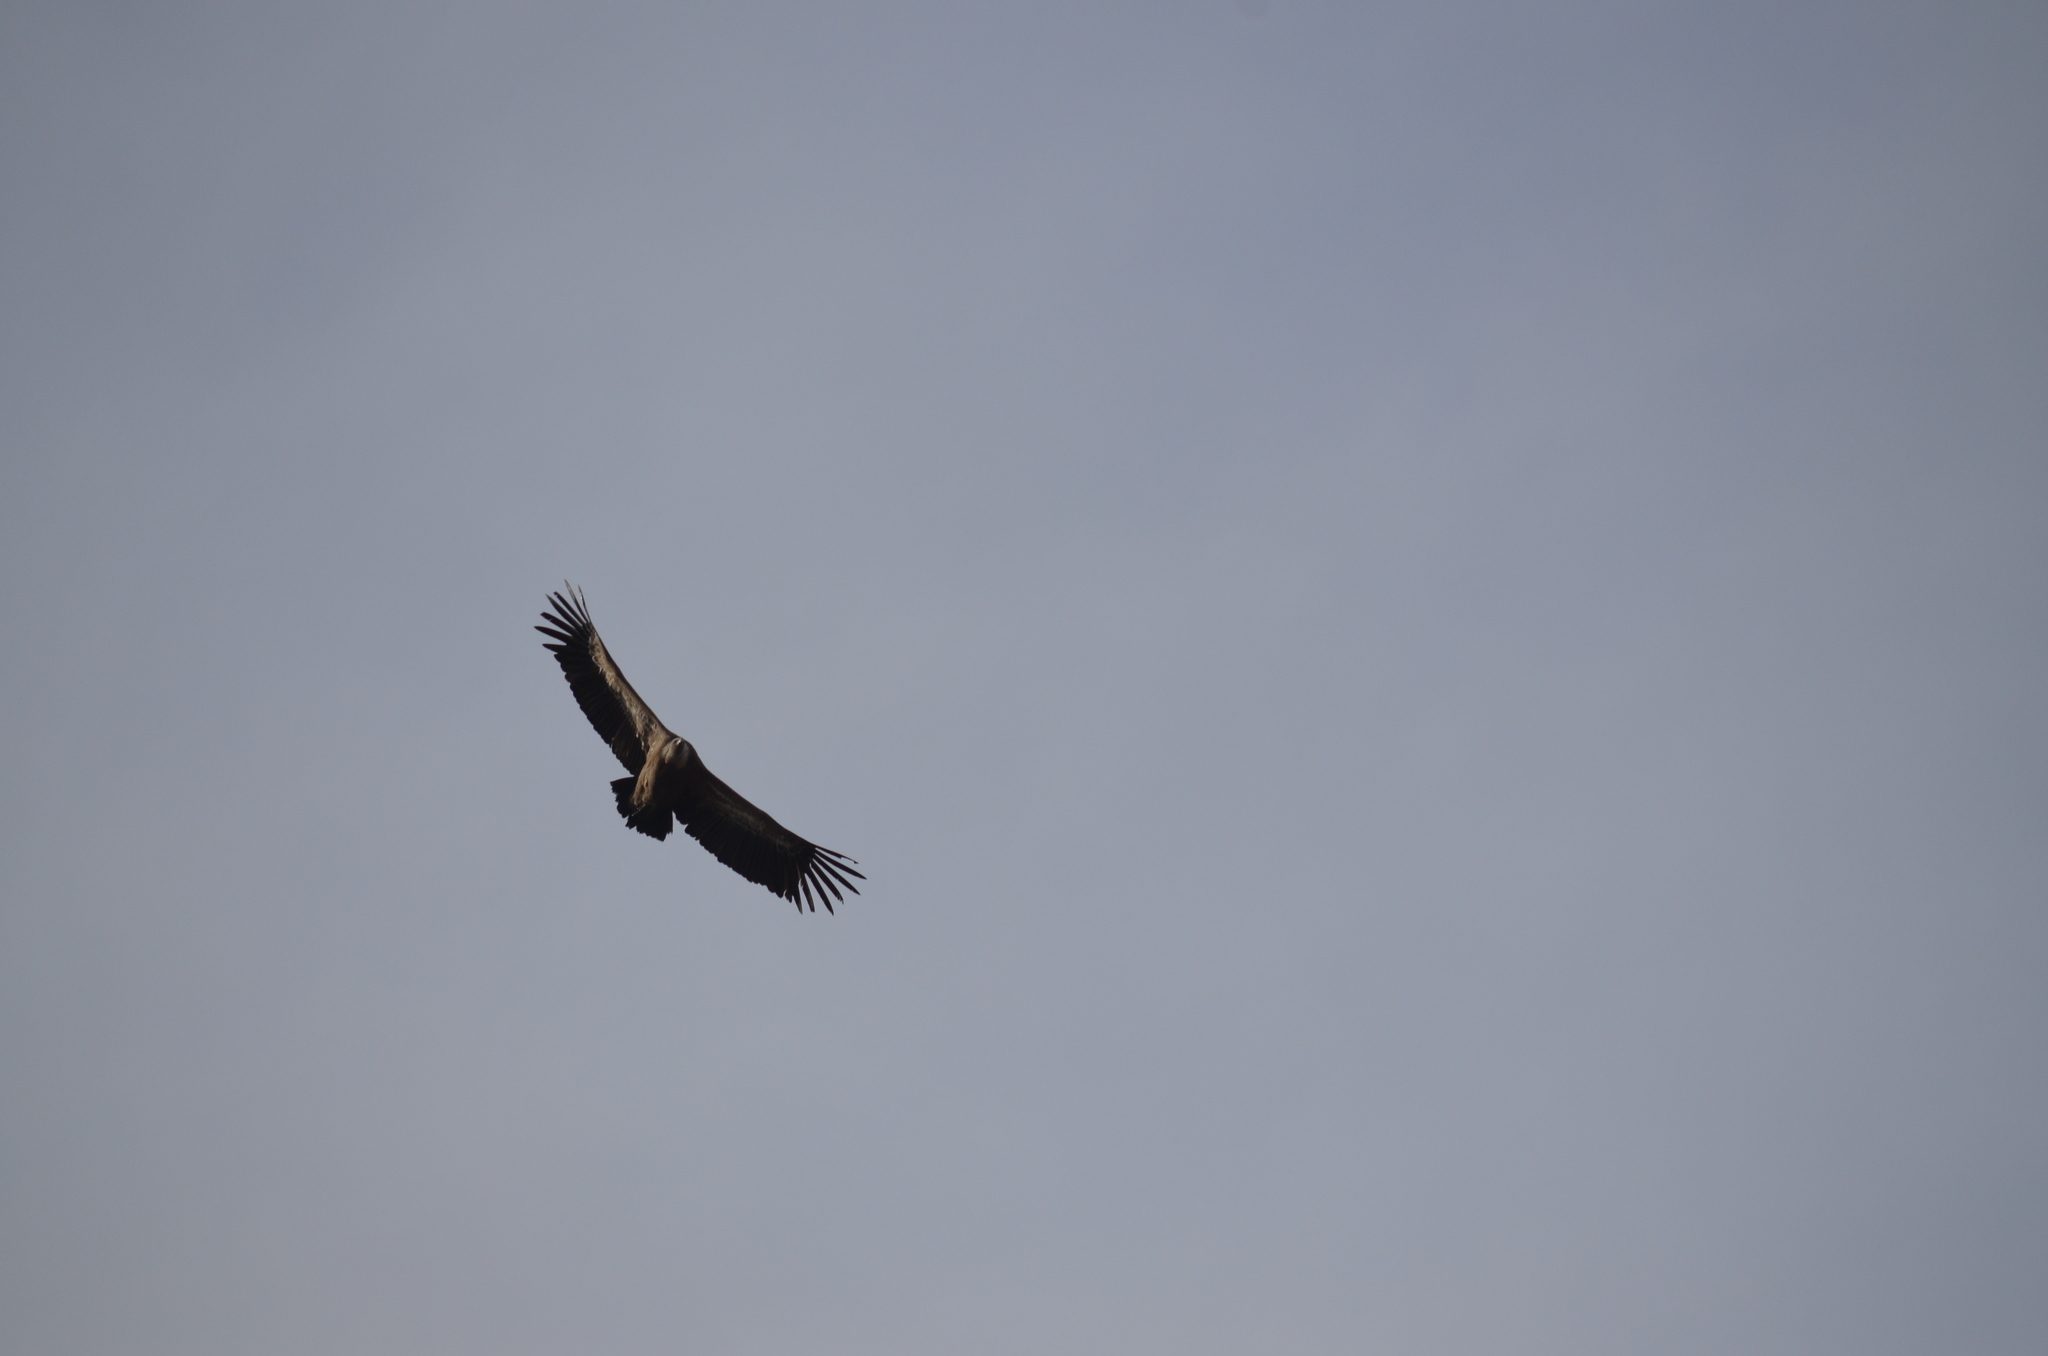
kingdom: Animalia
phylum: Chordata
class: Aves
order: Accipitriformes
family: Accipitridae
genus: Gyps
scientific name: Gyps fulvus
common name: Griffon vulture
